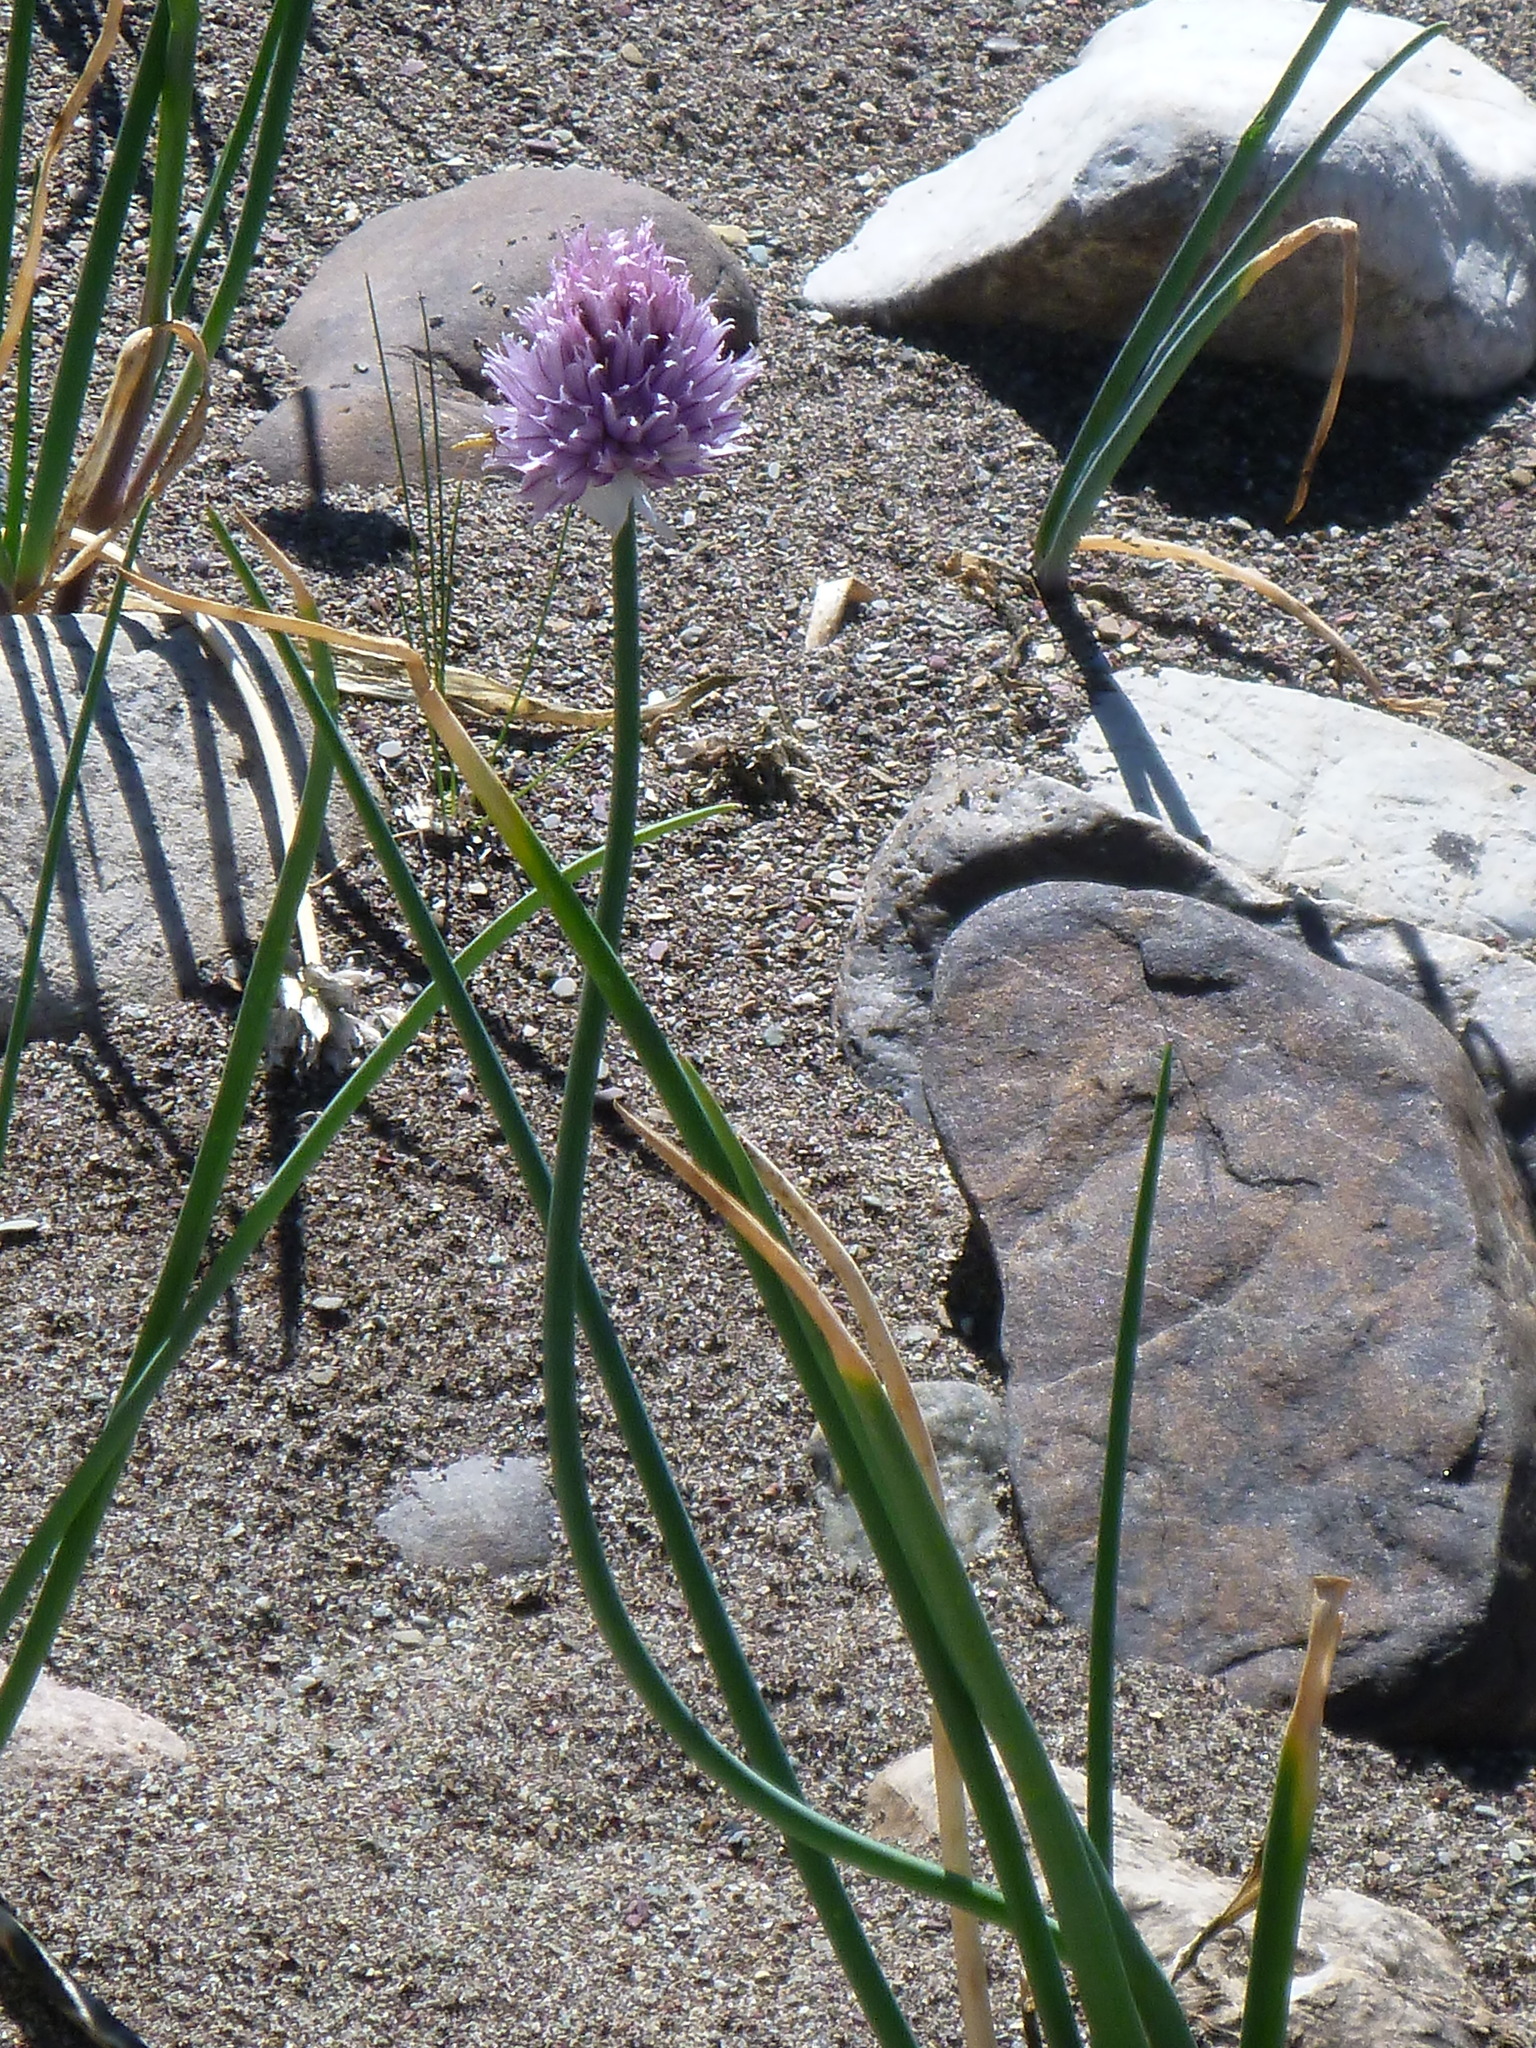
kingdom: Plantae
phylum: Tracheophyta
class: Liliopsida
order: Asparagales
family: Amaryllidaceae
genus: Allium
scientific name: Allium schoenoprasum
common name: Chives
